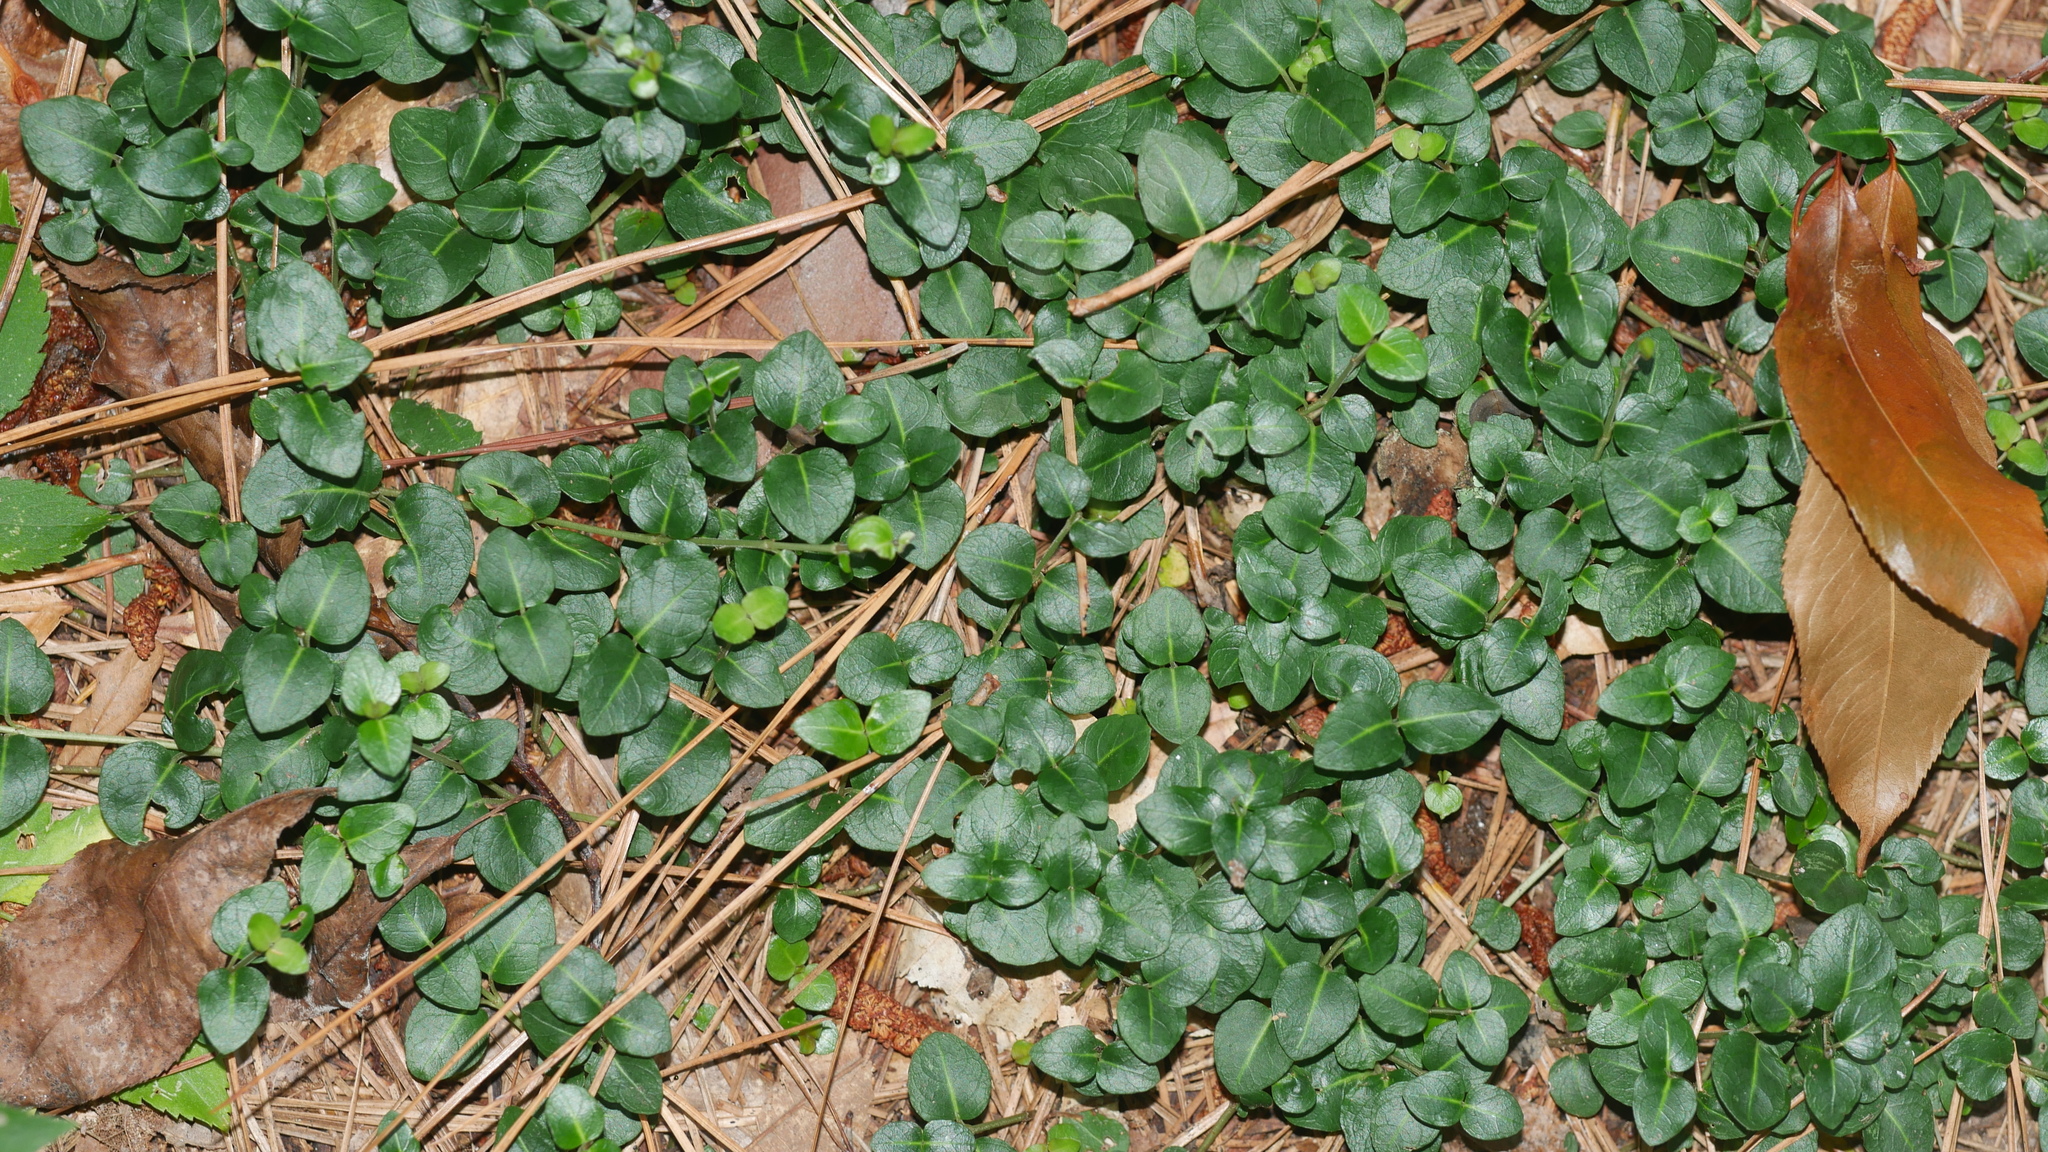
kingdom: Plantae
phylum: Tracheophyta
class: Magnoliopsida
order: Gentianales
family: Rubiaceae
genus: Mitchella
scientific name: Mitchella repens
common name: Partridge-berry
